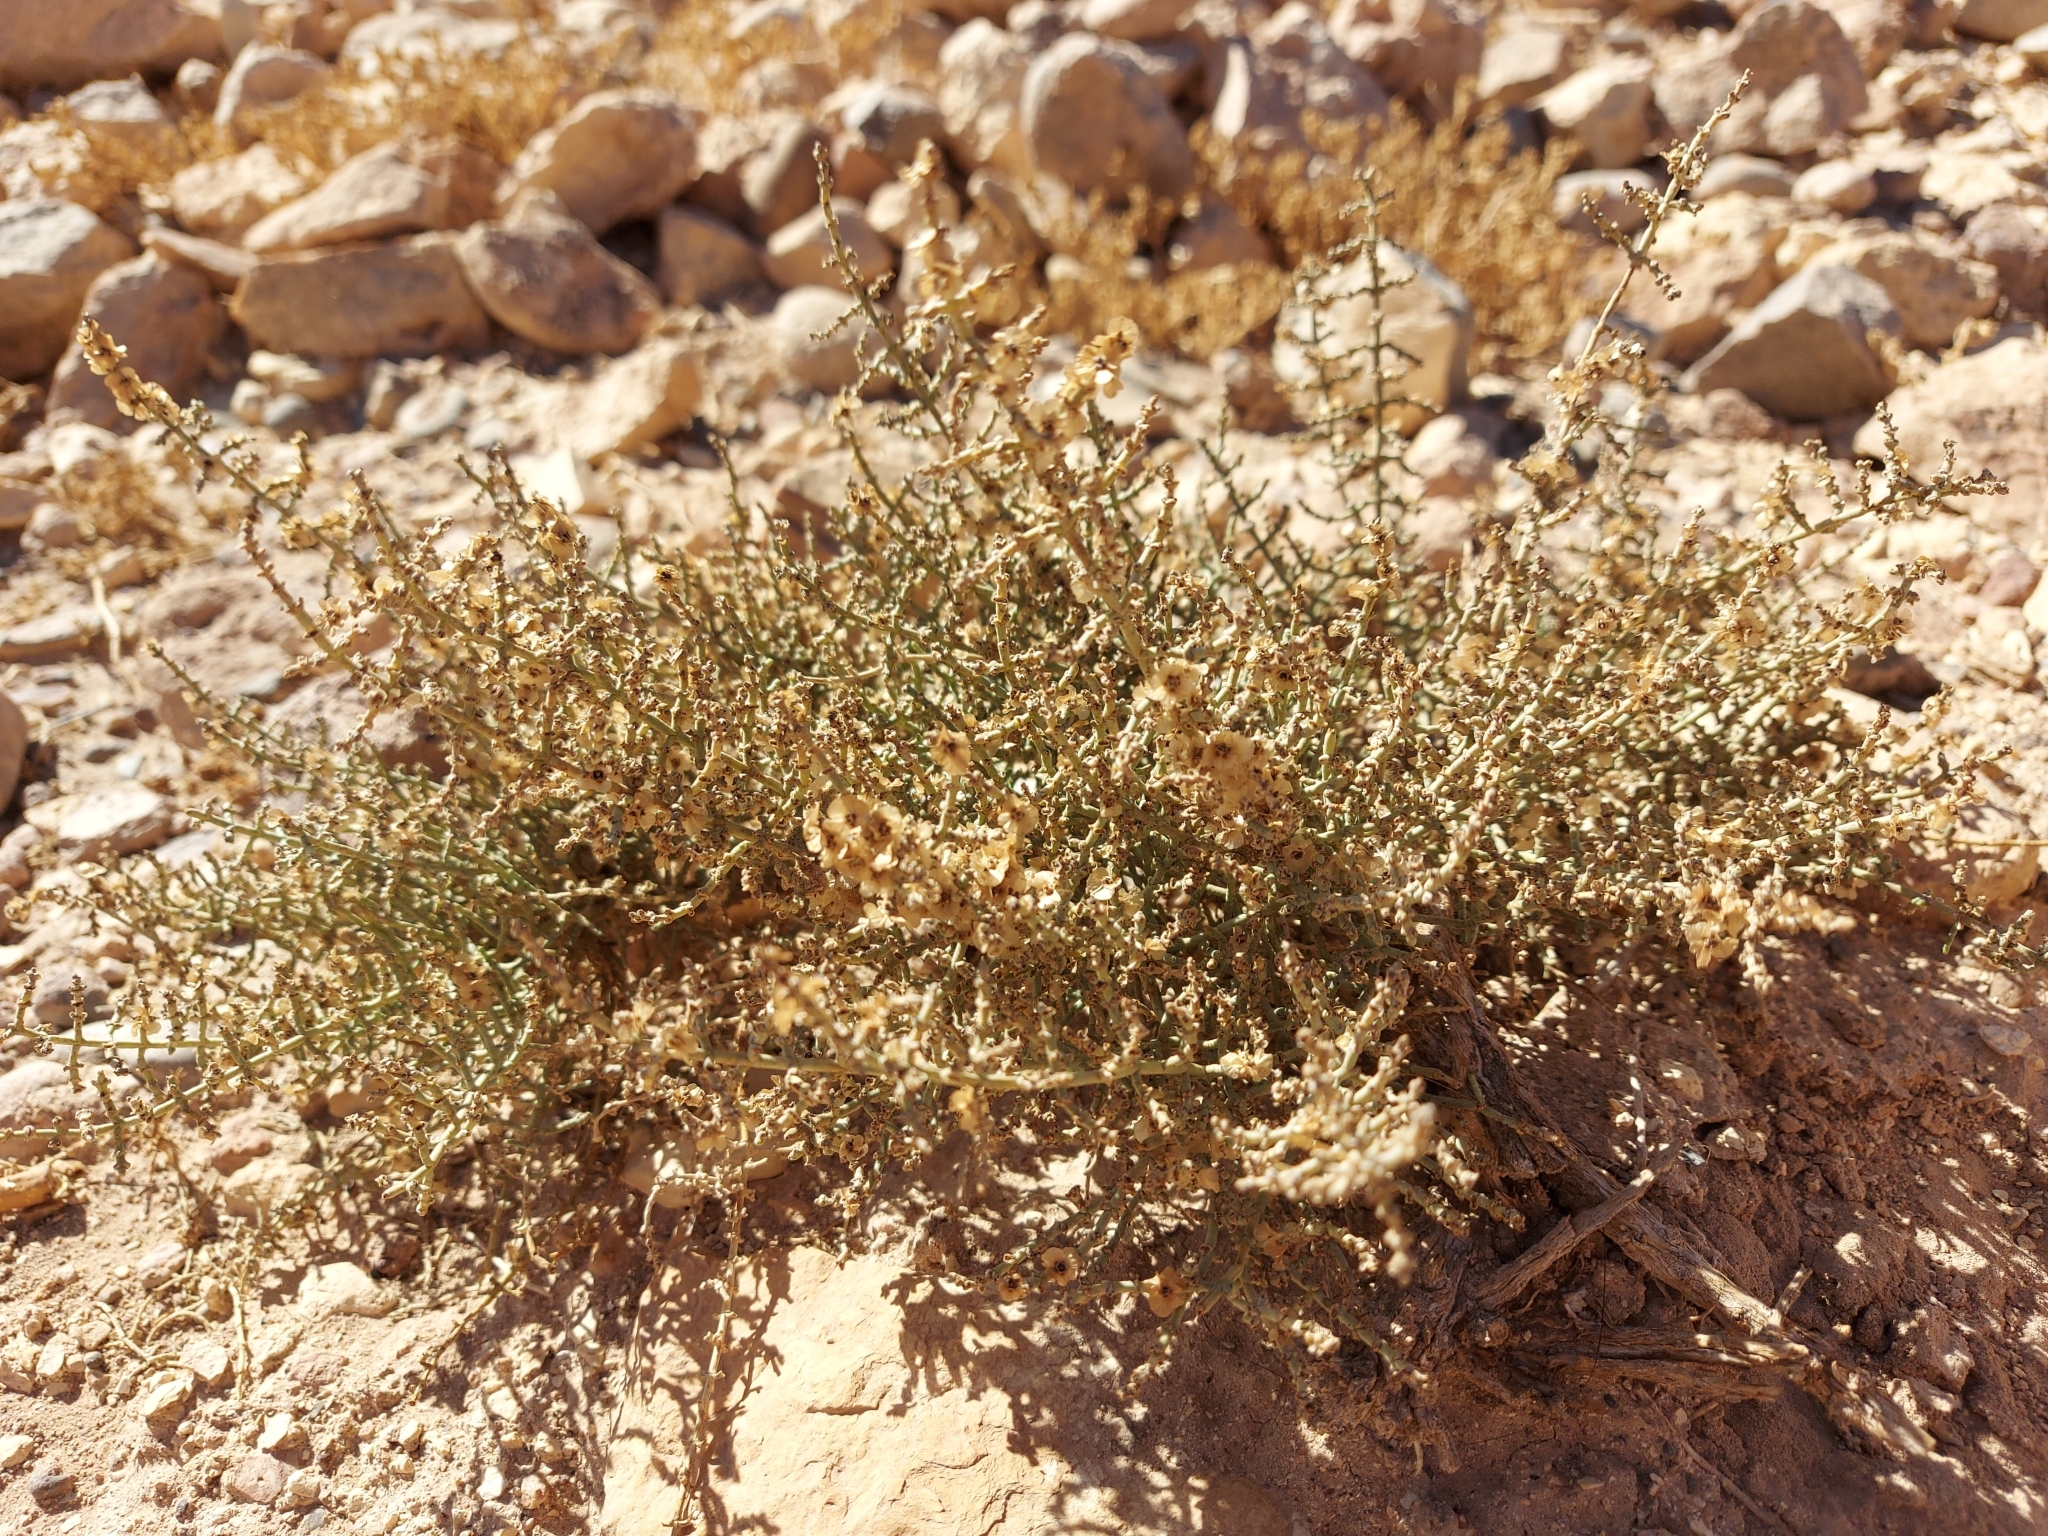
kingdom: Plantae
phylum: Tracheophyta
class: Magnoliopsida
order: Caryophyllales
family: Amaranthaceae
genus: Haloxylon
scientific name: Haloxylon
